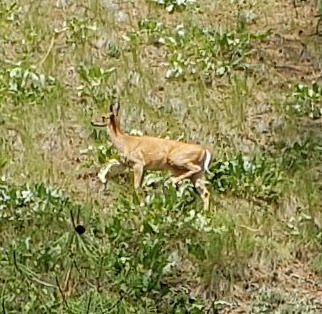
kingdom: Animalia
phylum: Chordata
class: Mammalia
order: Artiodactyla
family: Cervidae
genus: Odocoileus
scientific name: Odocoileus virginianus
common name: White-tailed deer
